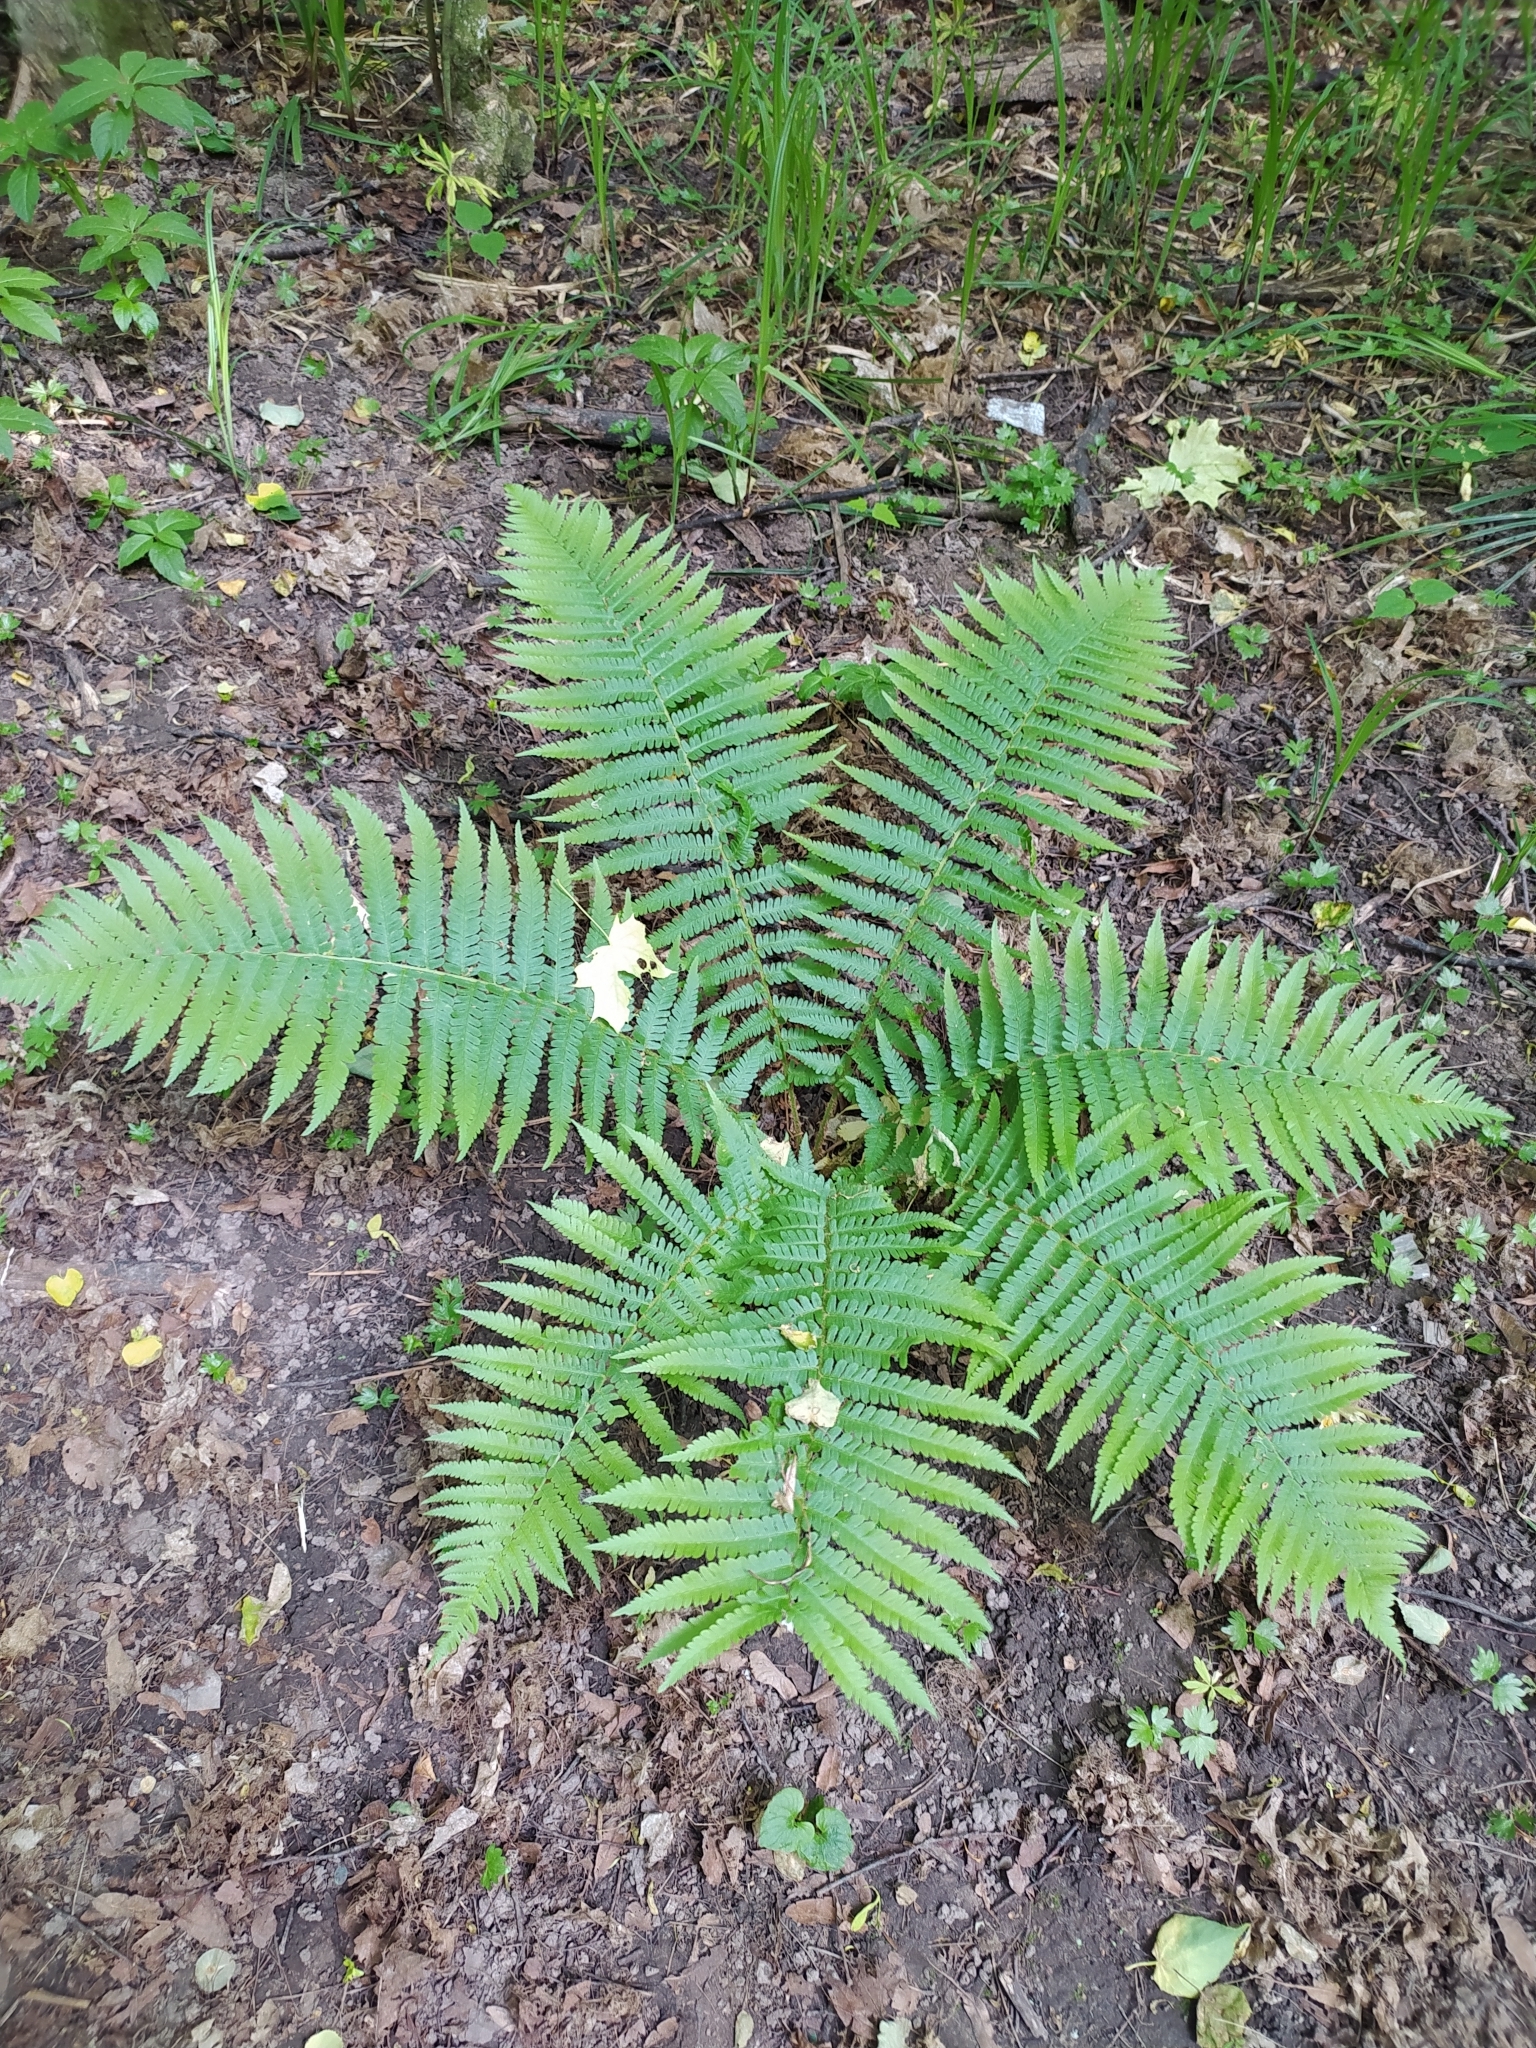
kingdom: Plantae
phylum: Tracheophyta
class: Polypodiopsida
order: Polypodiales
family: Dryopteridaceae
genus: Dryopteris
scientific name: Dryopteris filix-mas
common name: Male fern
